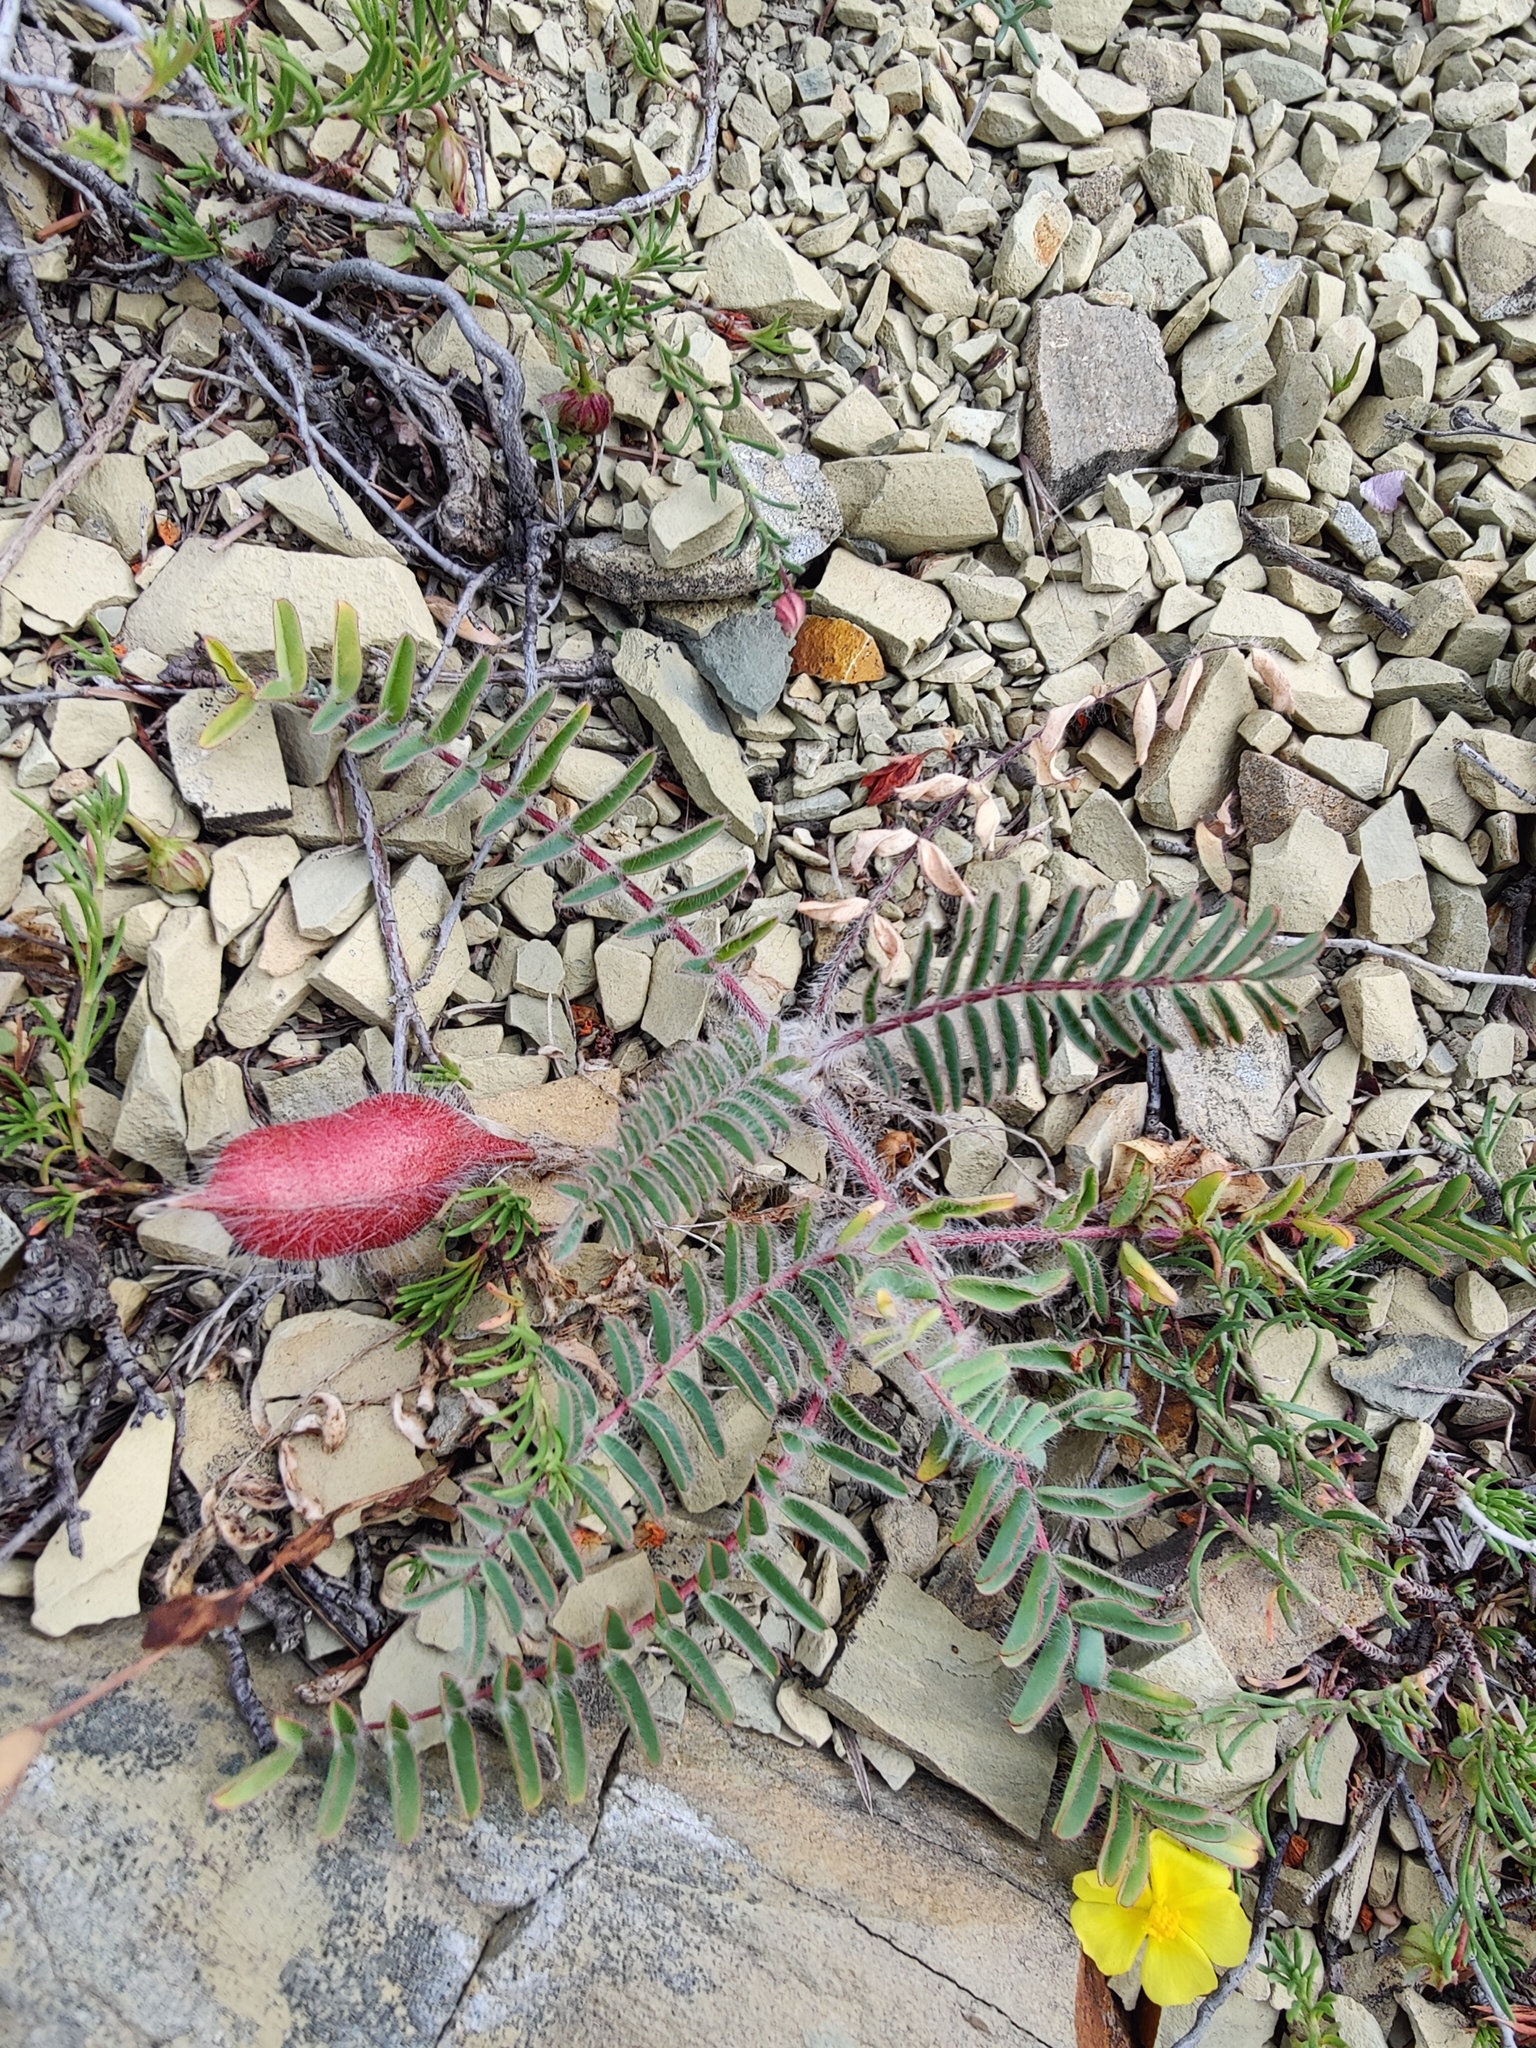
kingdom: Plantae
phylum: Tracheophyta
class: Magnoliopsida
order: Fabales
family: Fabaceae
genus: Astragalus
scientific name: Astragalus utriger
